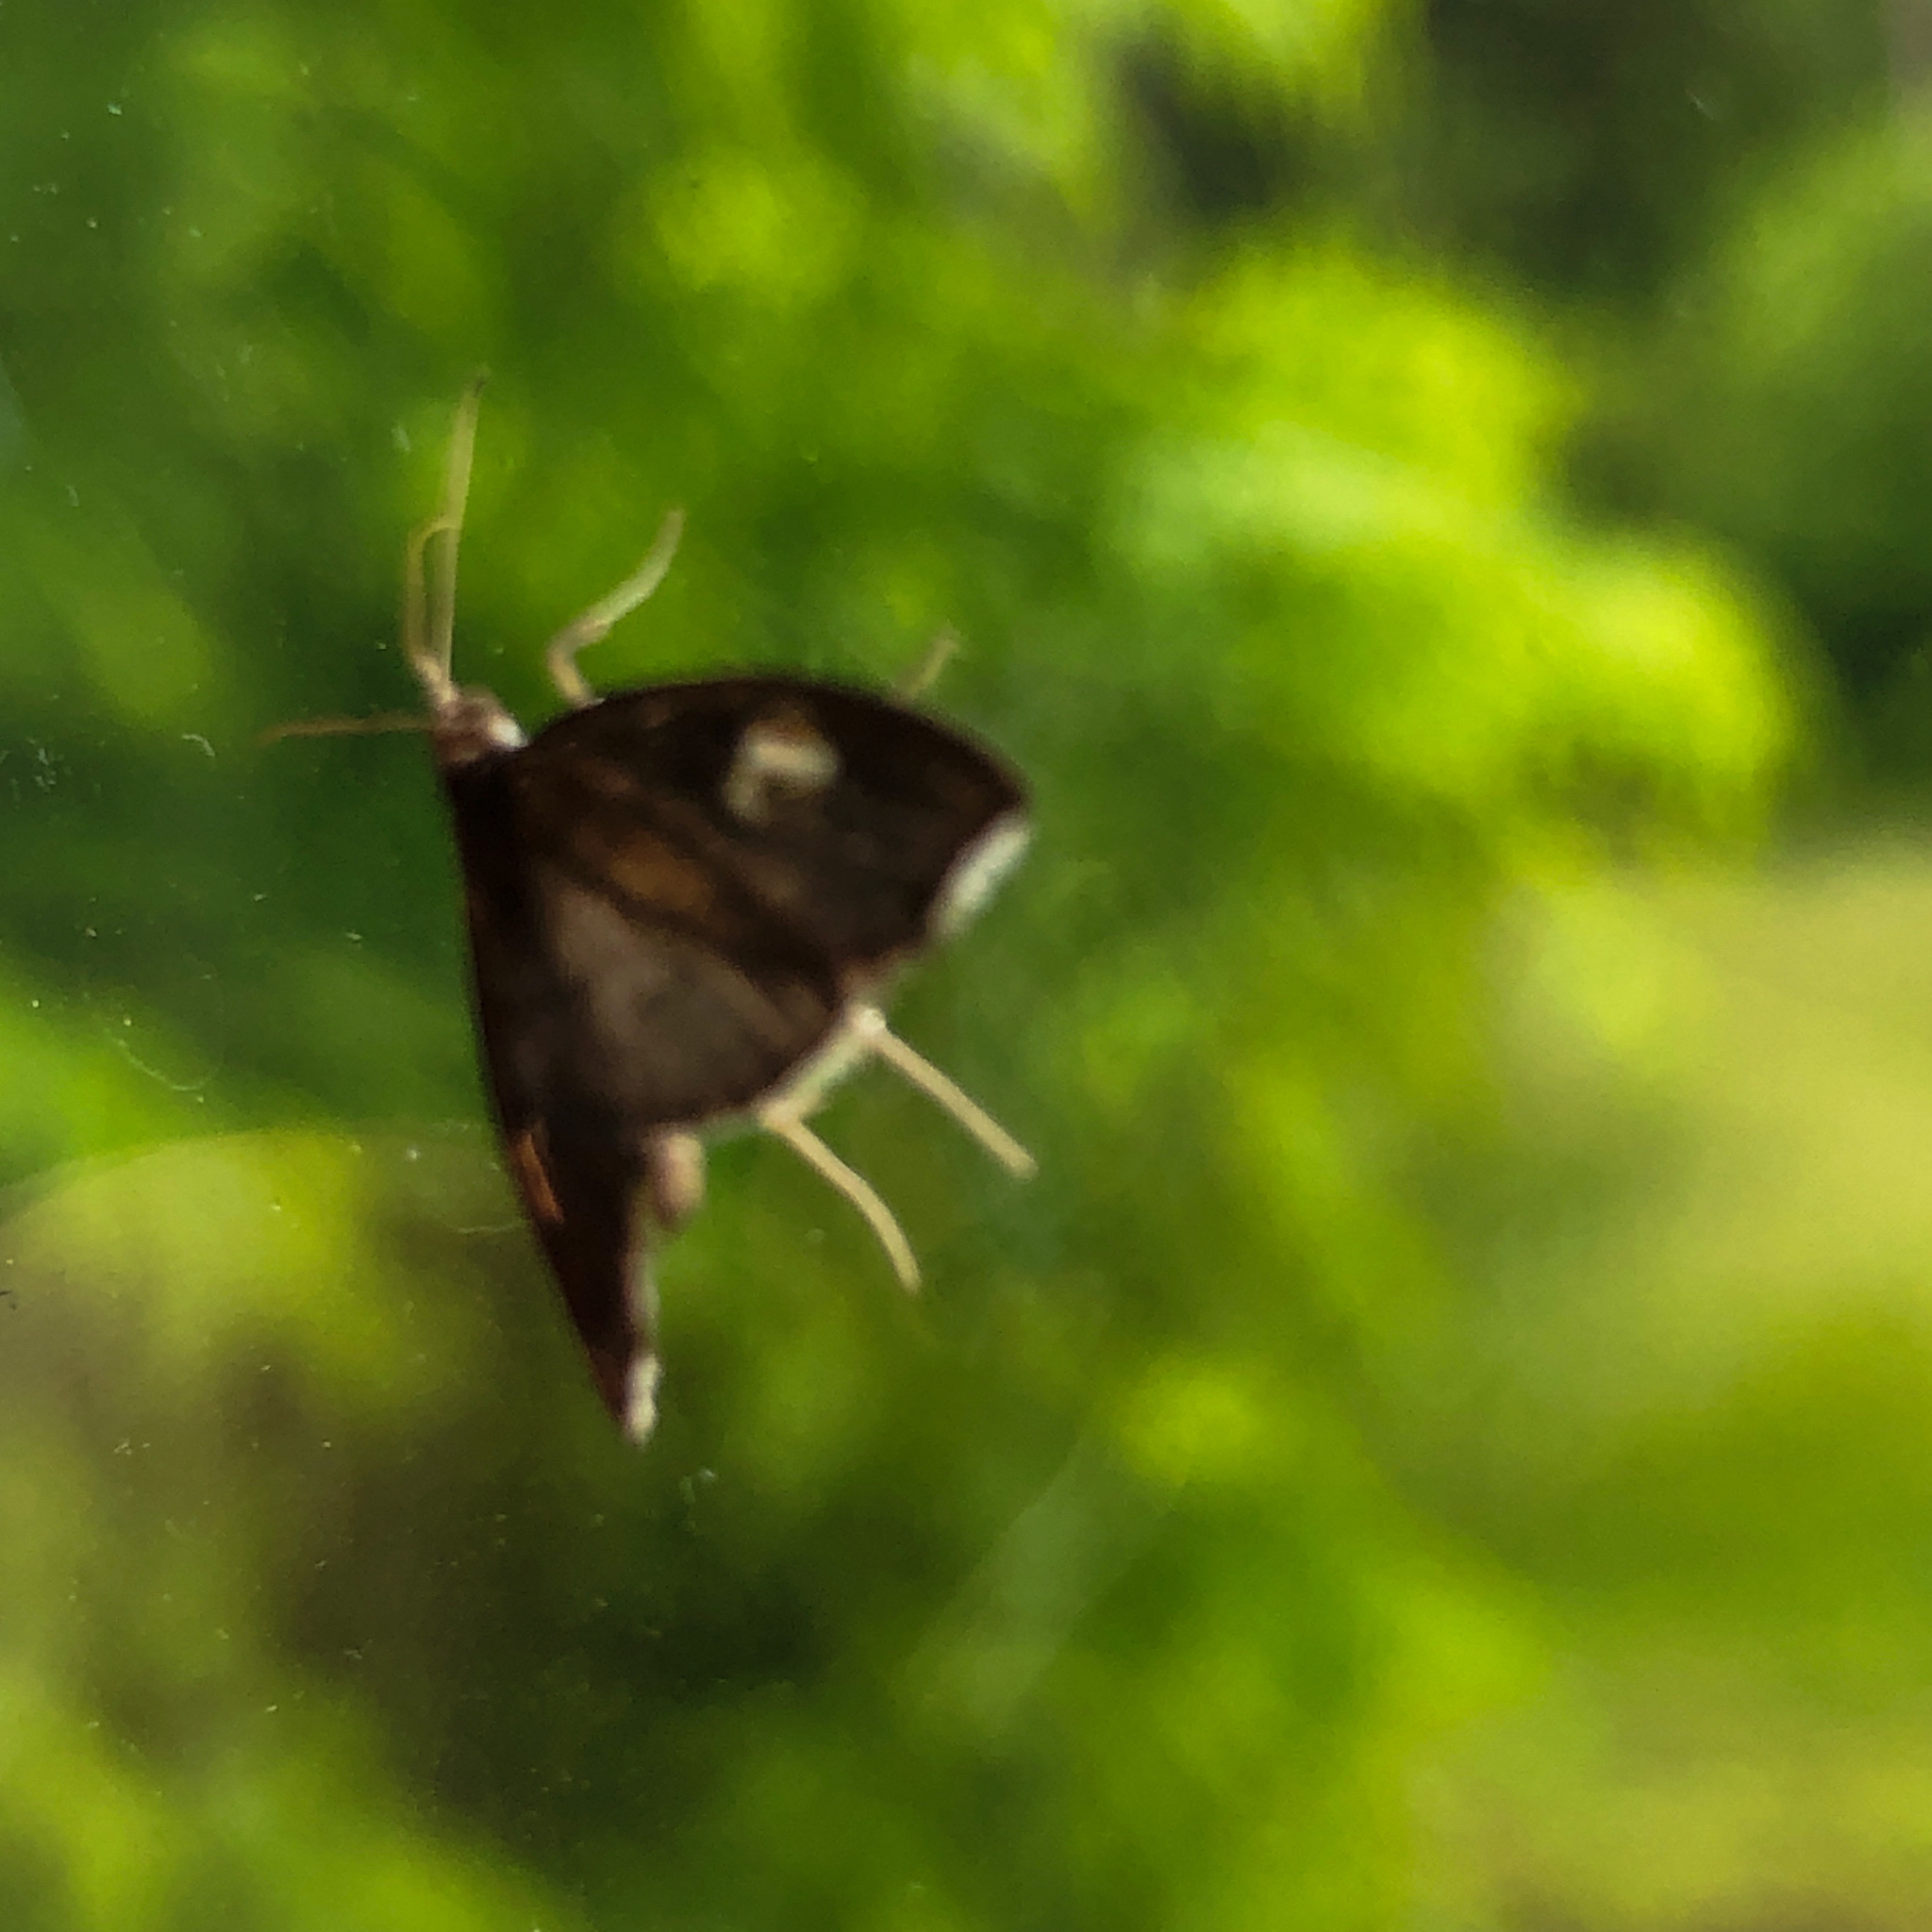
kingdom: Animalia
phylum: Arthropoda
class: Insecta
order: Lepidoptera
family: Crambidae
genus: Perispasta
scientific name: Perispasta caeculalis
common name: Titian peale's moth
